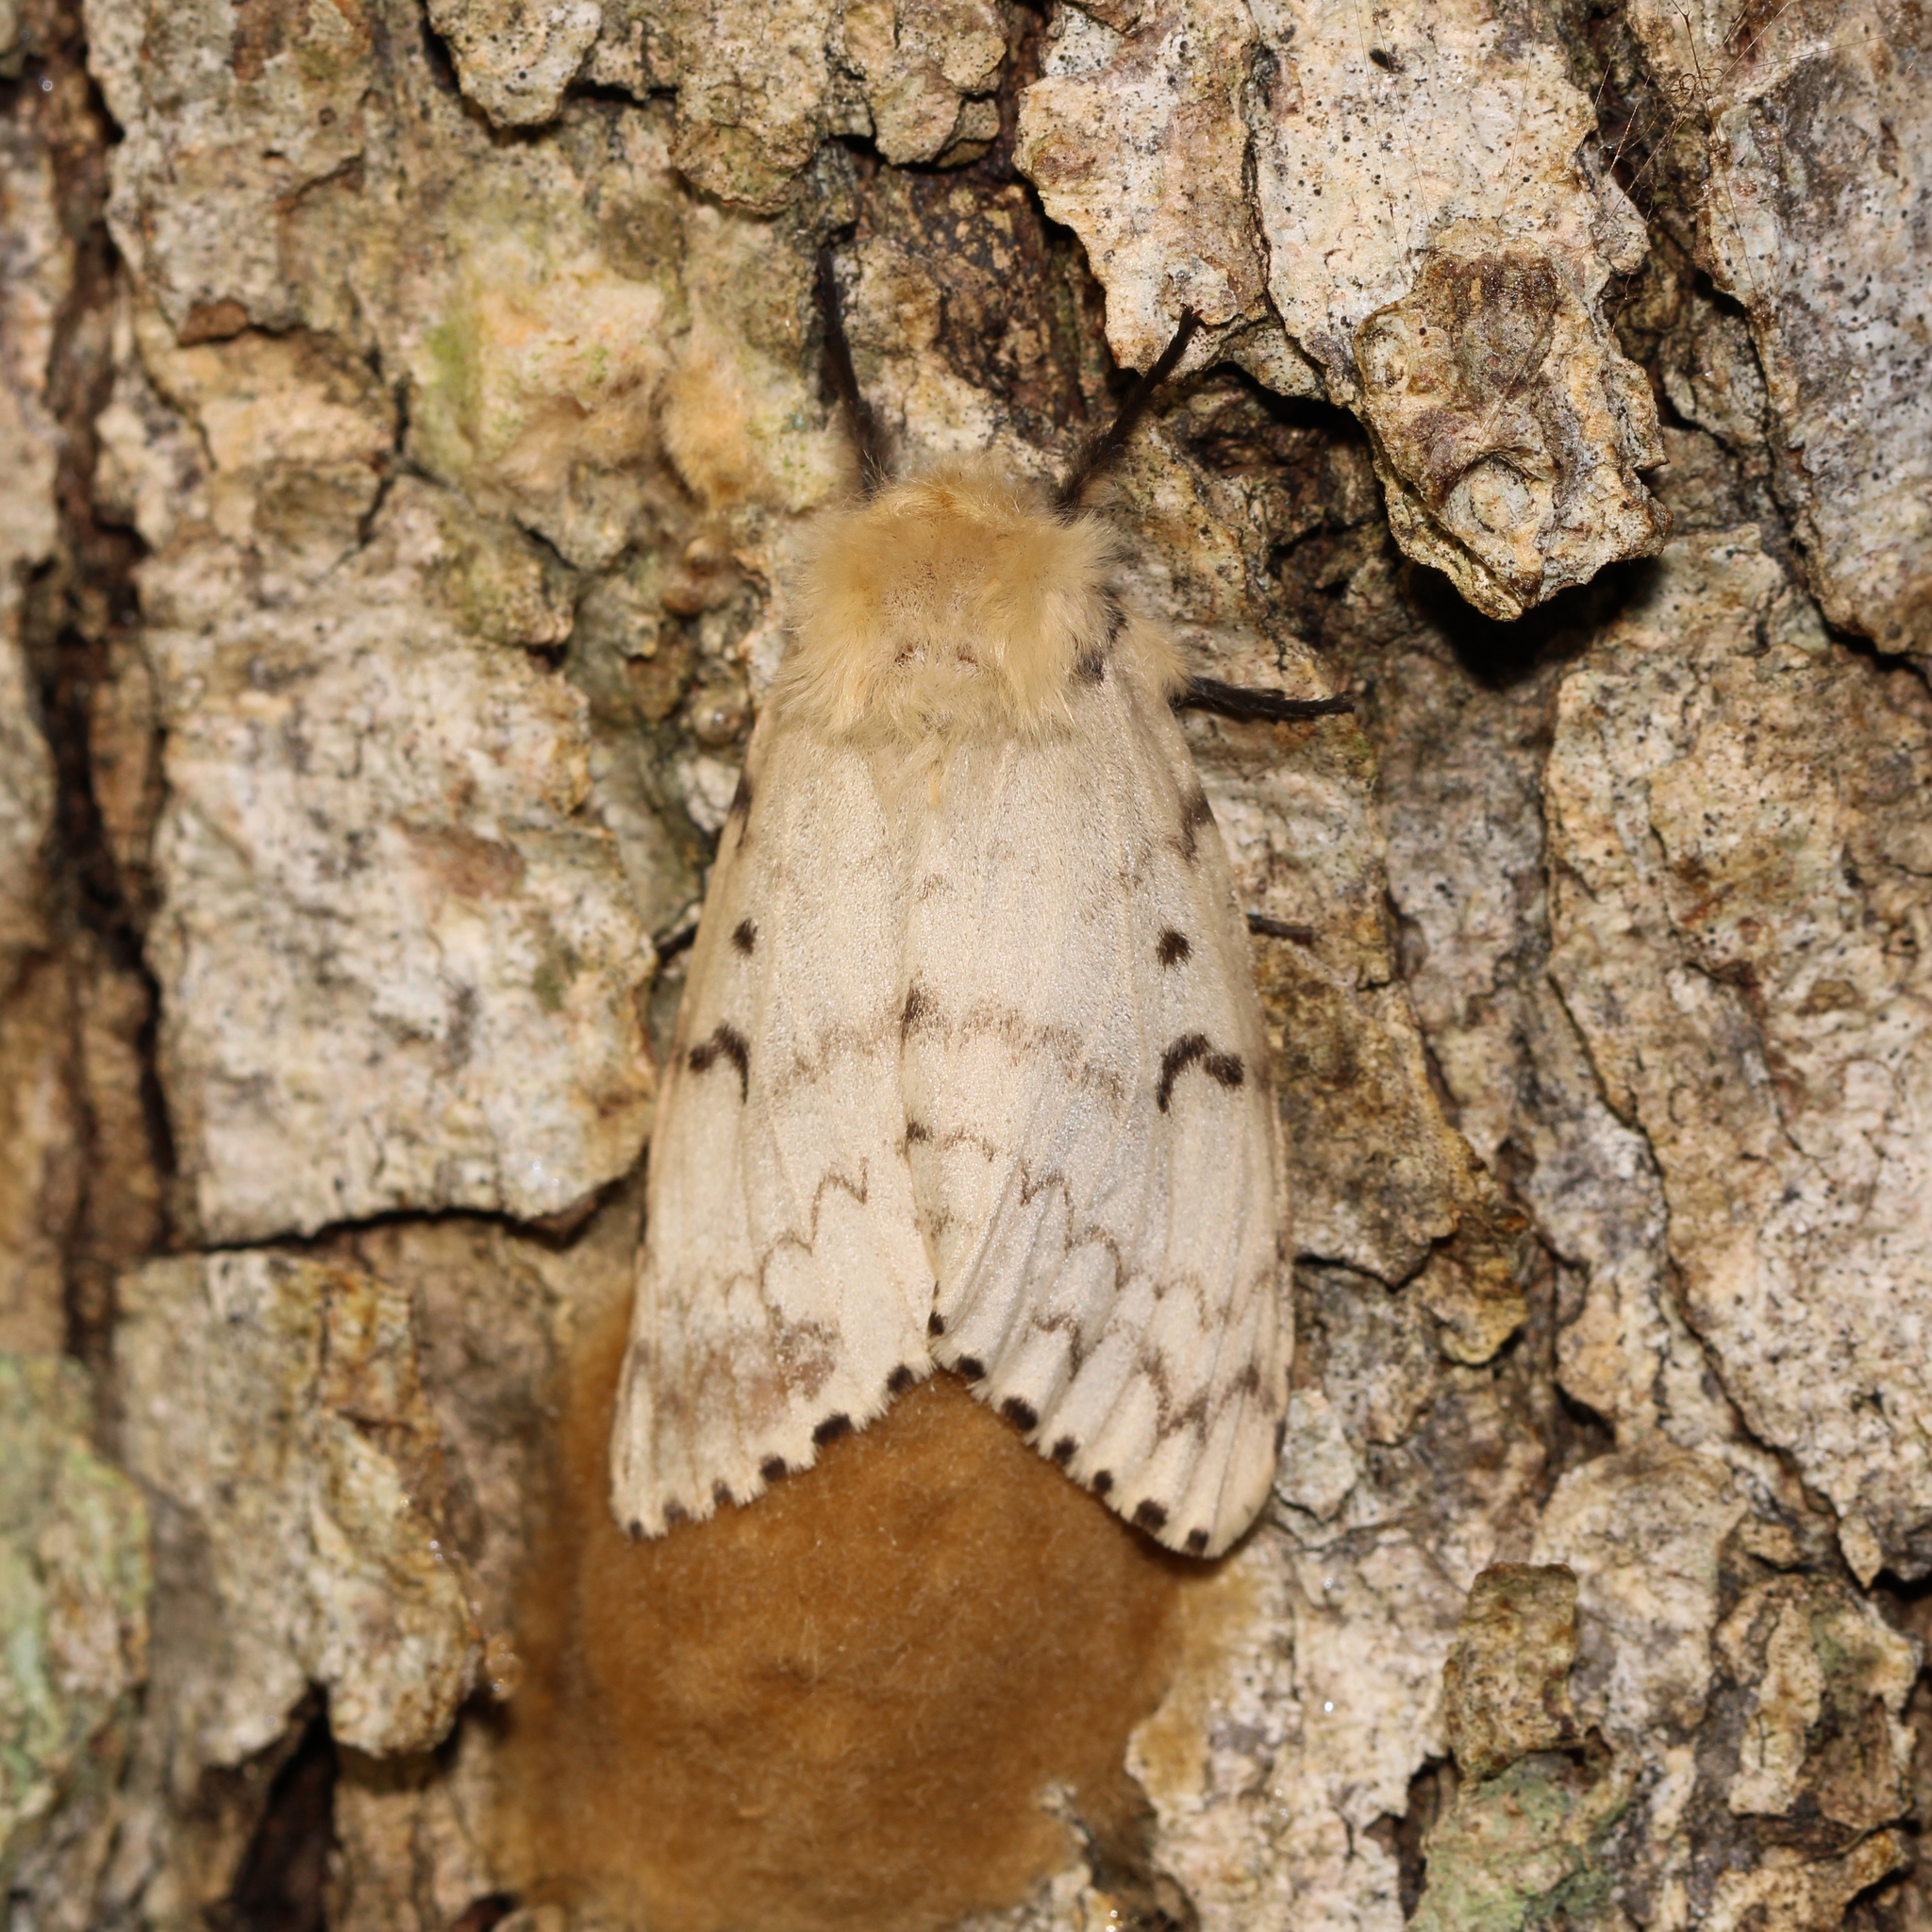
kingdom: Animalia
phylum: Arthropoda
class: Insecta
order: Lepidoptera
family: Erebidae
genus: Lymantria
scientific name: Lymantria dispar
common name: Gypsy moth
